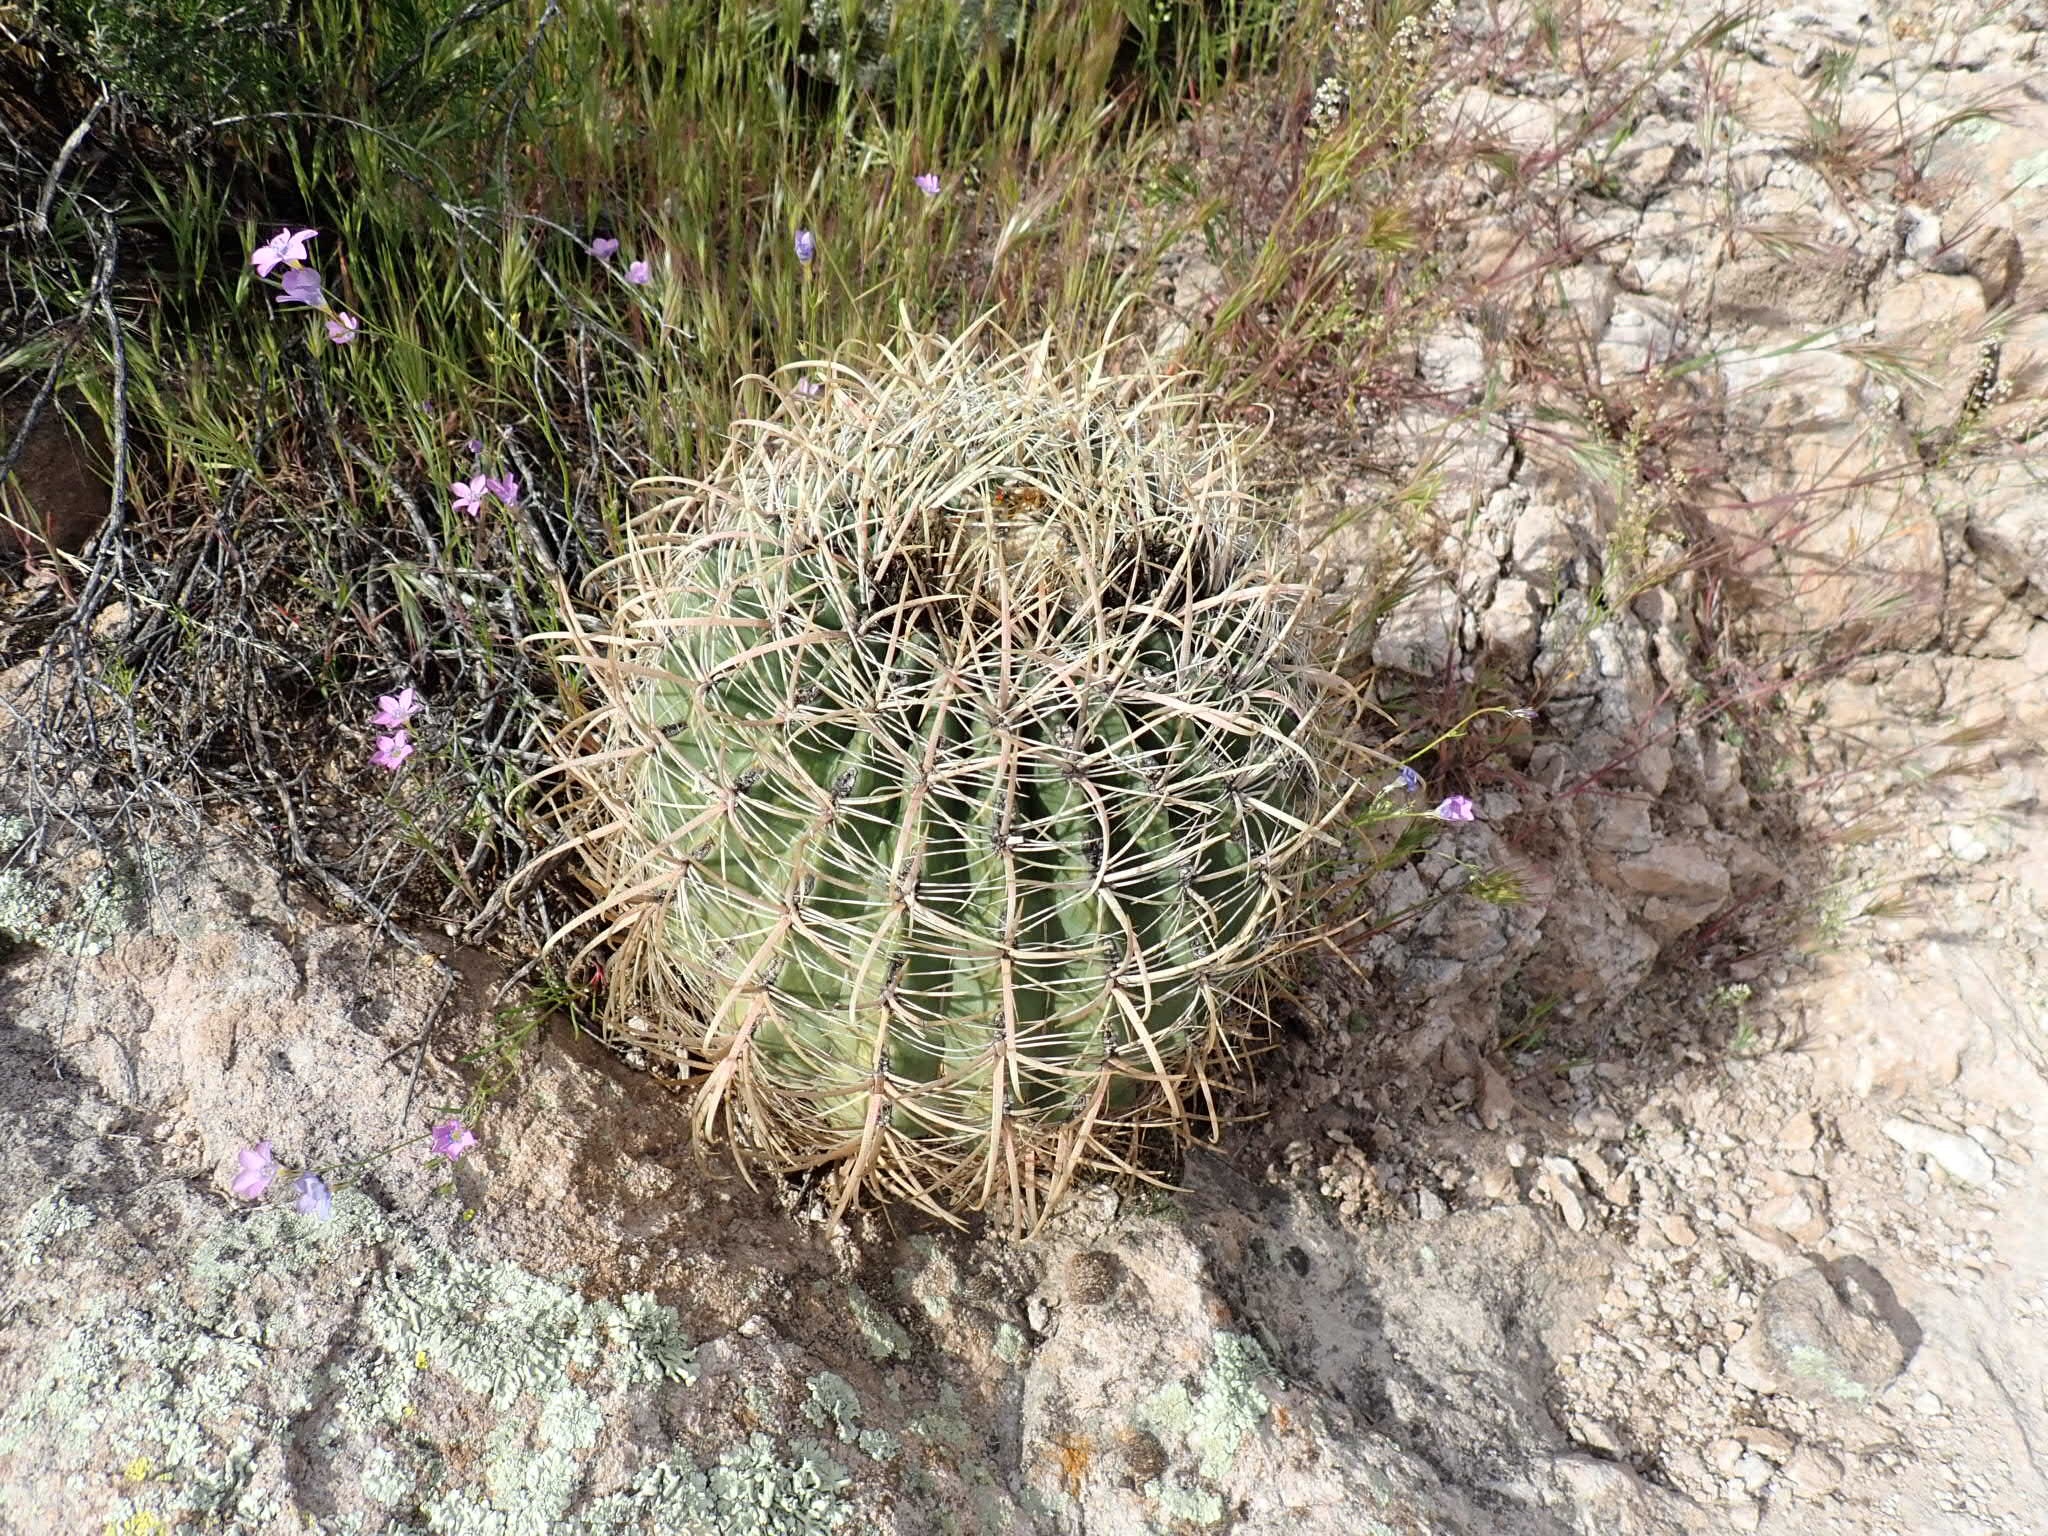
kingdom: Plantae
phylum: Tracheophyta
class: Magnoliopsida
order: Caryophyllales
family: Cactaceae
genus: Ferocactus
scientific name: Ferocactus cylindraceus
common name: California barrel cactus
